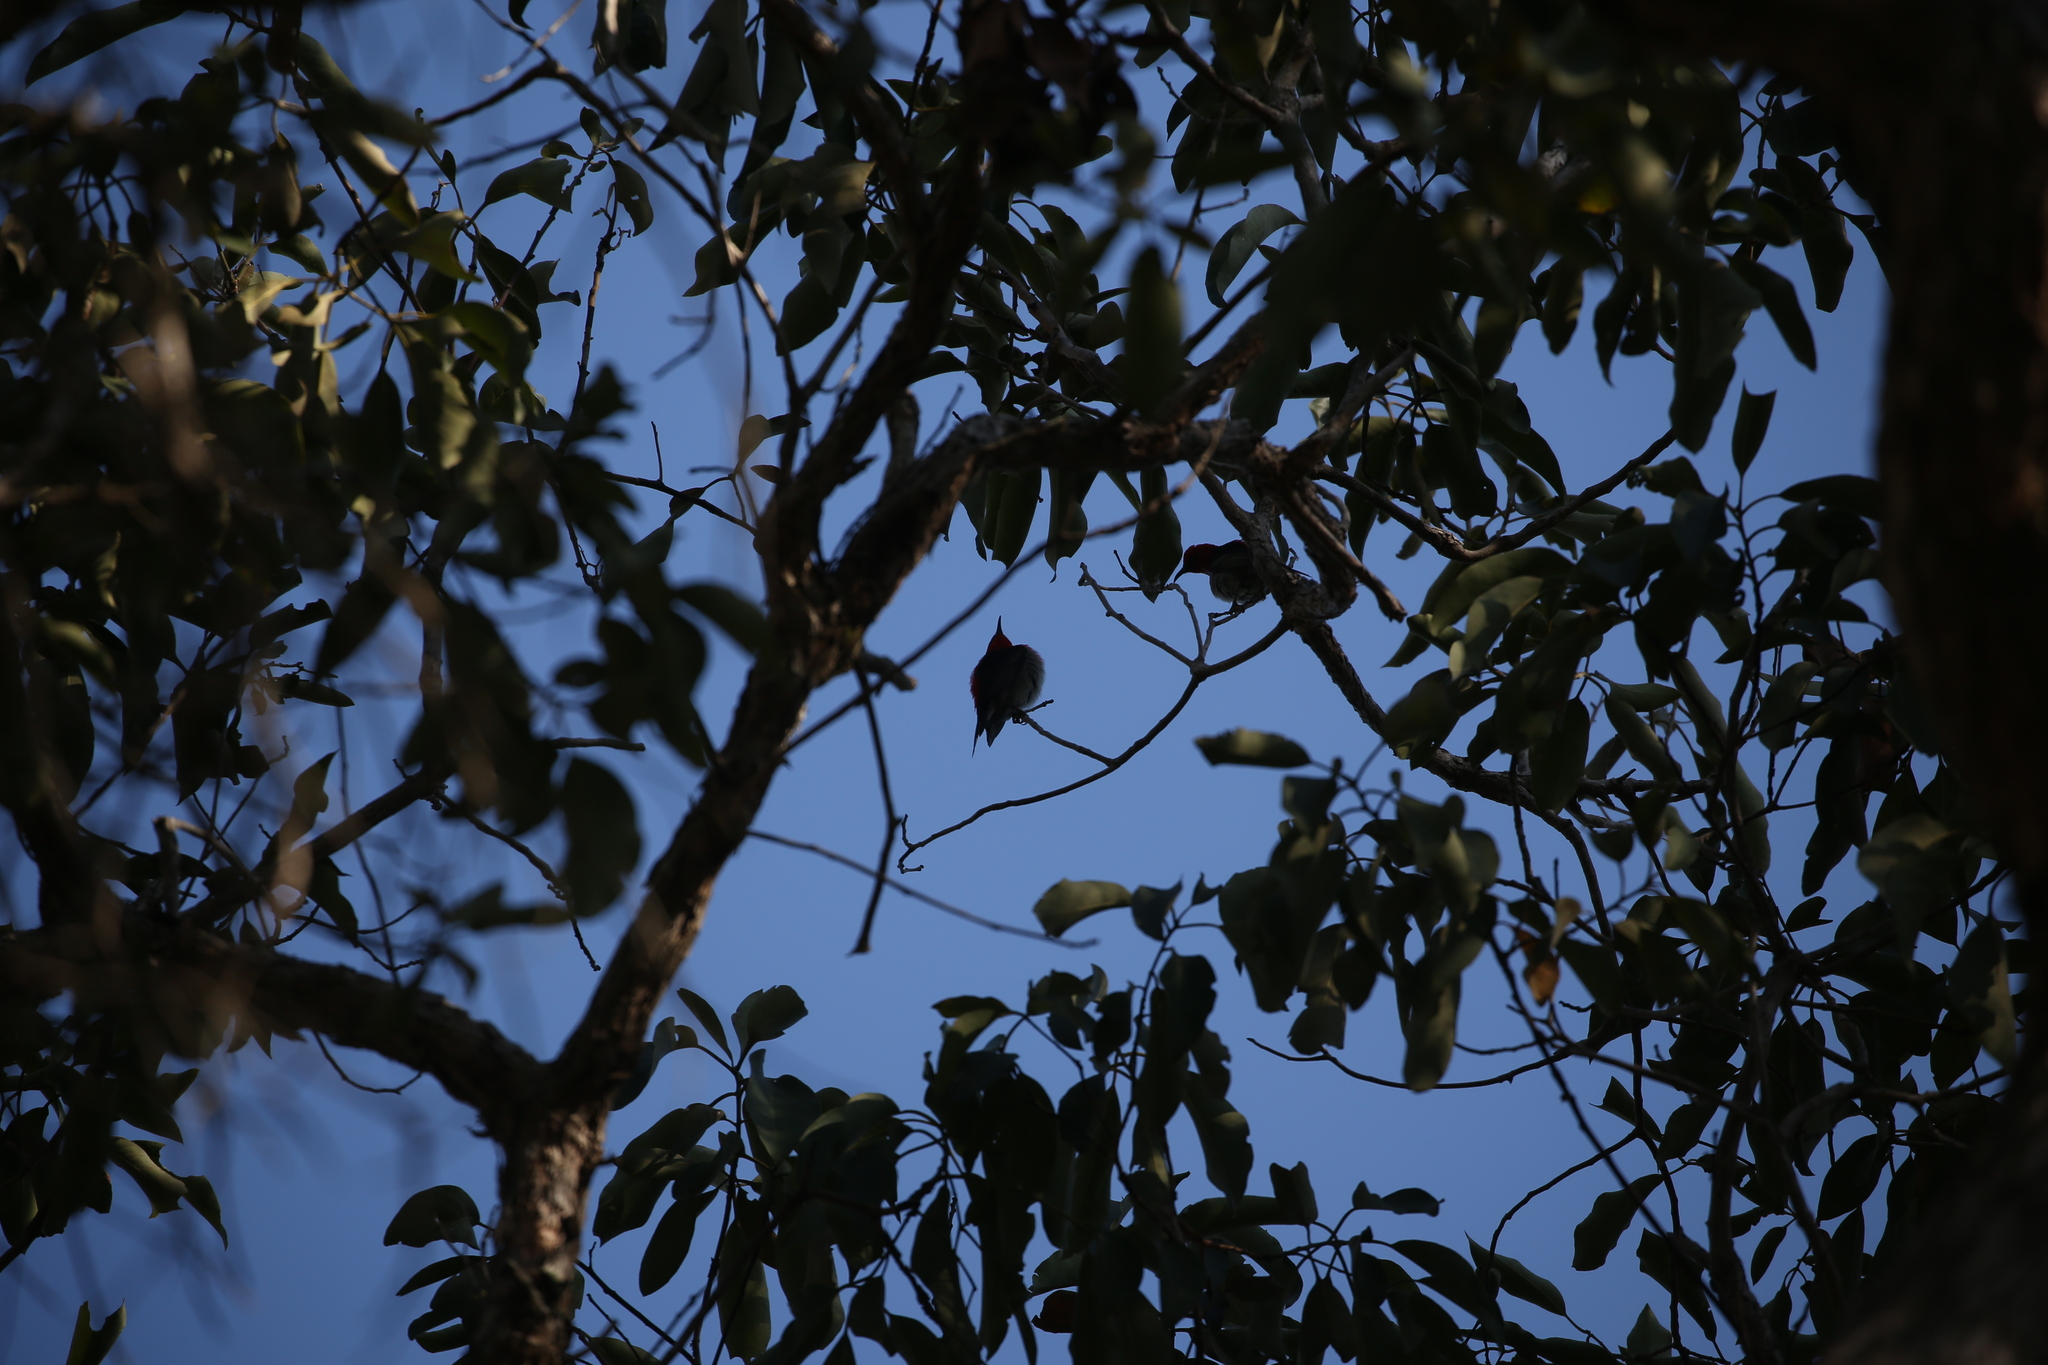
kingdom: Animalia
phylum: Chordata
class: Aves
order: Passeriformes
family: Meliphagidae
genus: Myzomela
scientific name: Myzomela sanguinolenta
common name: Scarlet myzomela
